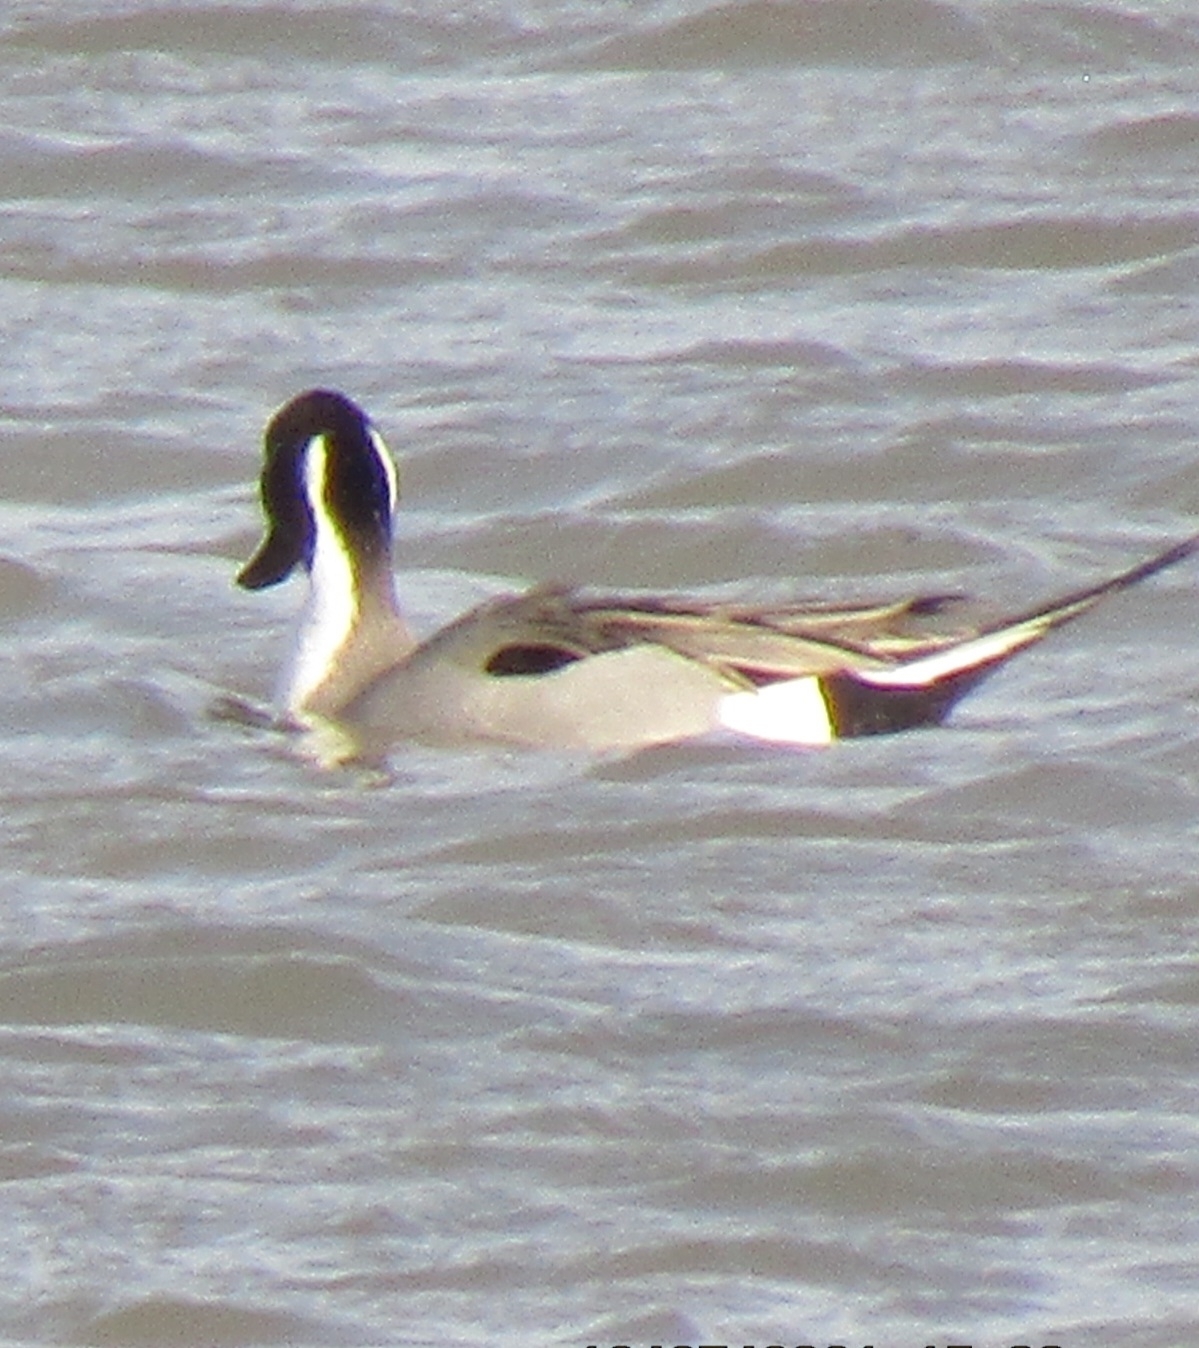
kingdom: Animalia
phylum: Chordata
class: Aves
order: Anseriformes
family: Anatidae
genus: Anas
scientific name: Anas acuta
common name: Northern pintail
